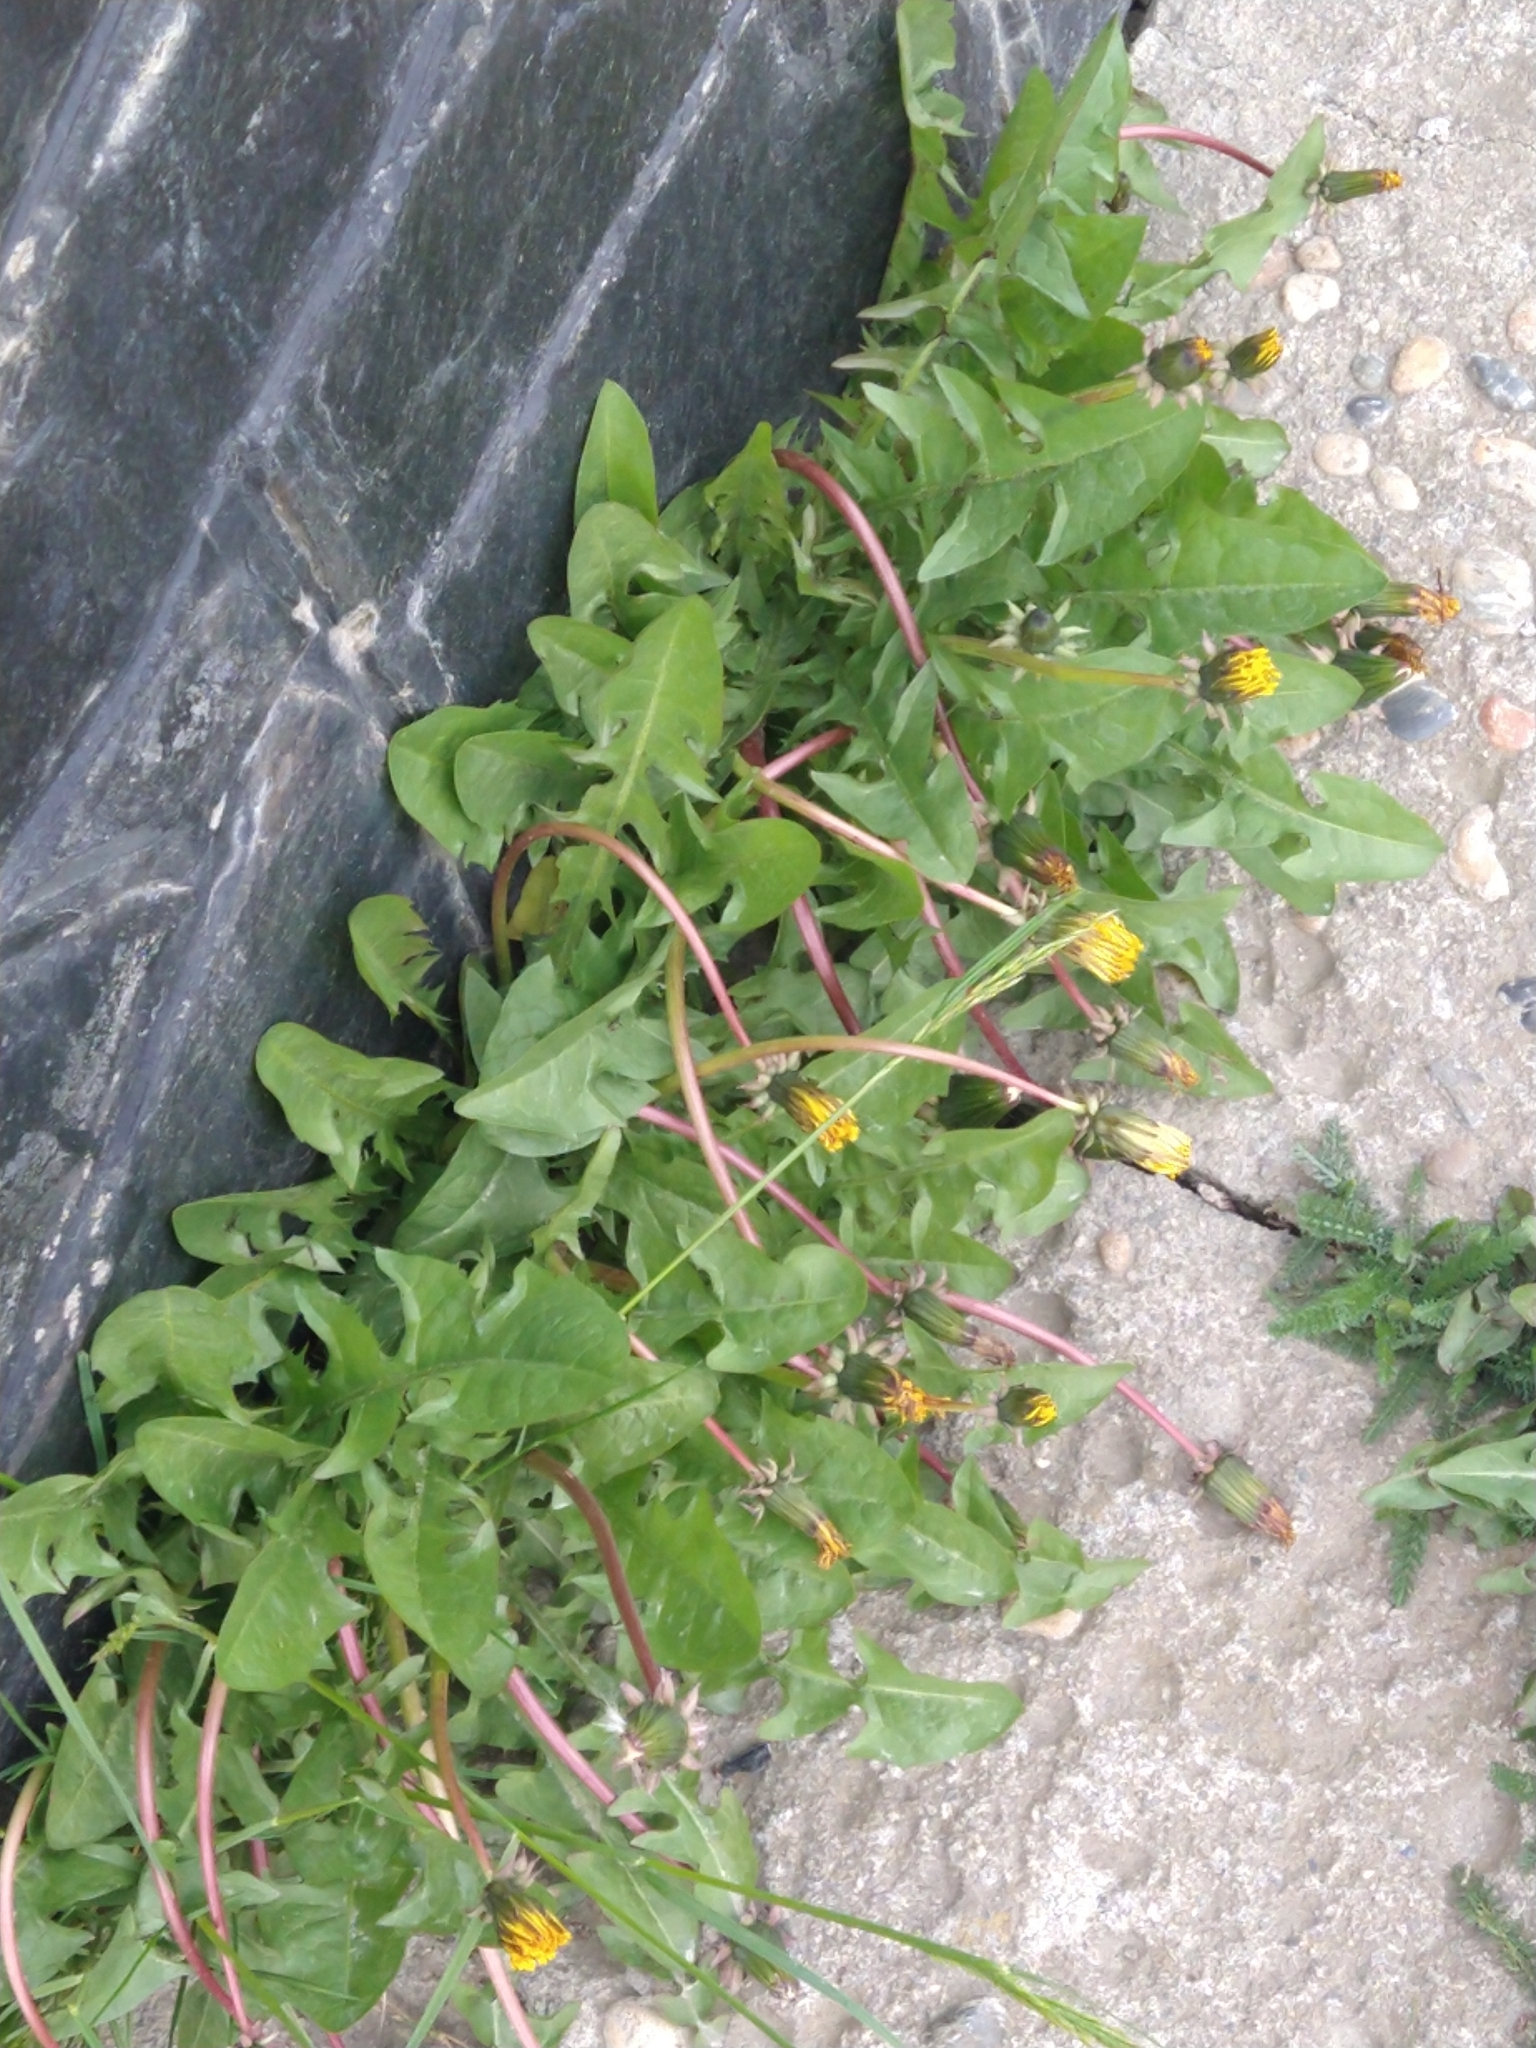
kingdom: Plantae
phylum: Tracheophyta
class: Magnoliopsida
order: Asterales
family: Asteraceae
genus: Taraxacum
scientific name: Taraxacum officinale
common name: Common dandelion
